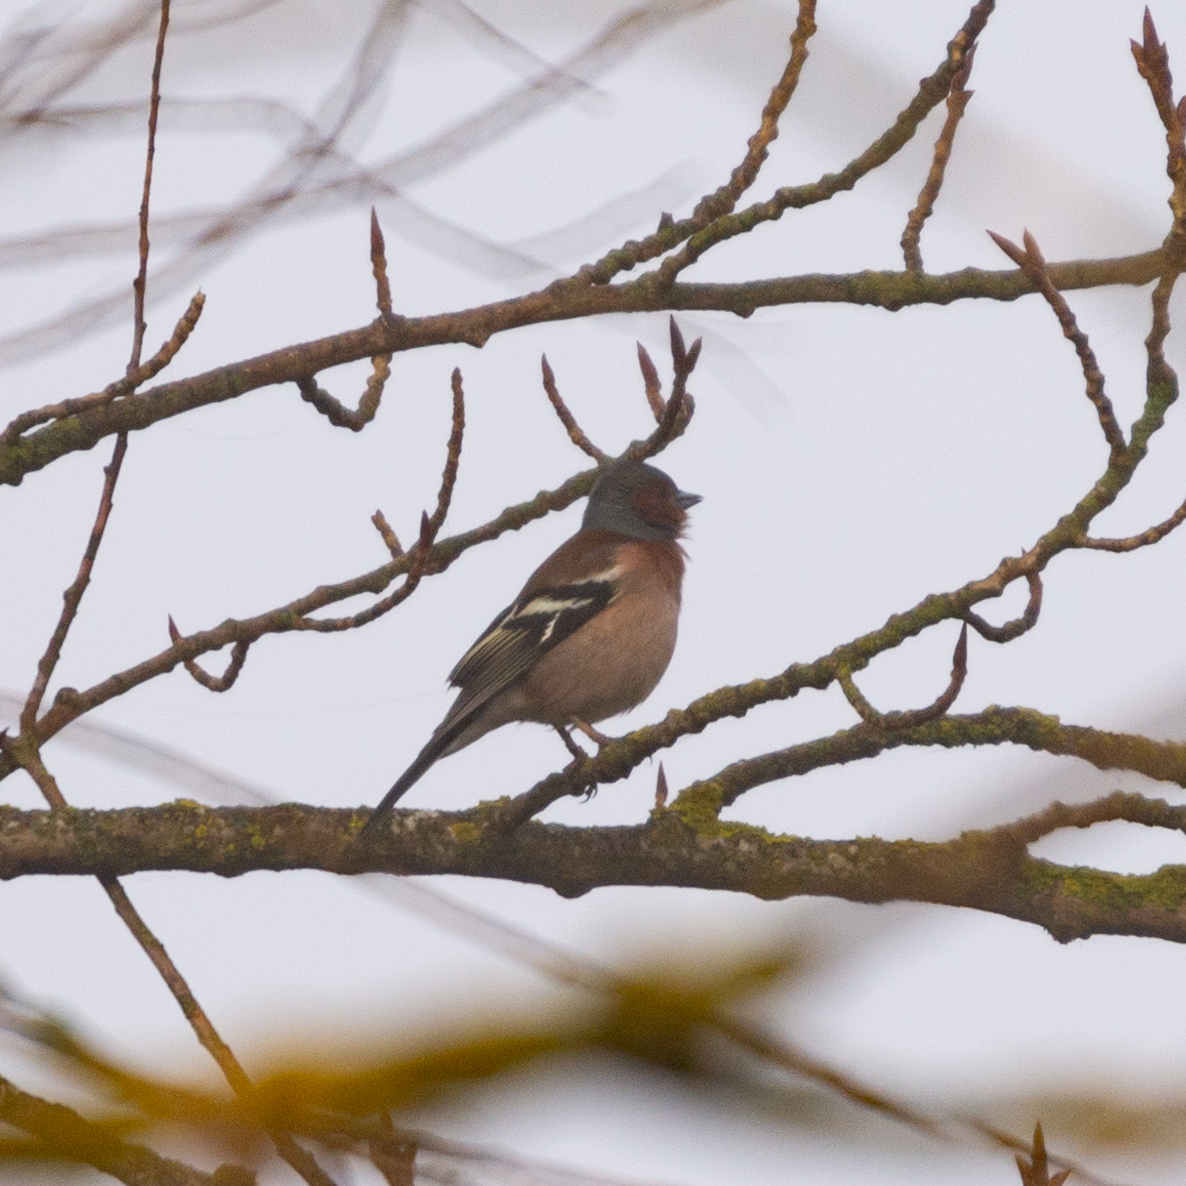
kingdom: Animalia
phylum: Chordata
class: Aves
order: Passeriformes
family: Fringillidae
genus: Fringilla
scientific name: Fringilla coelebs
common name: Common chaffinch
